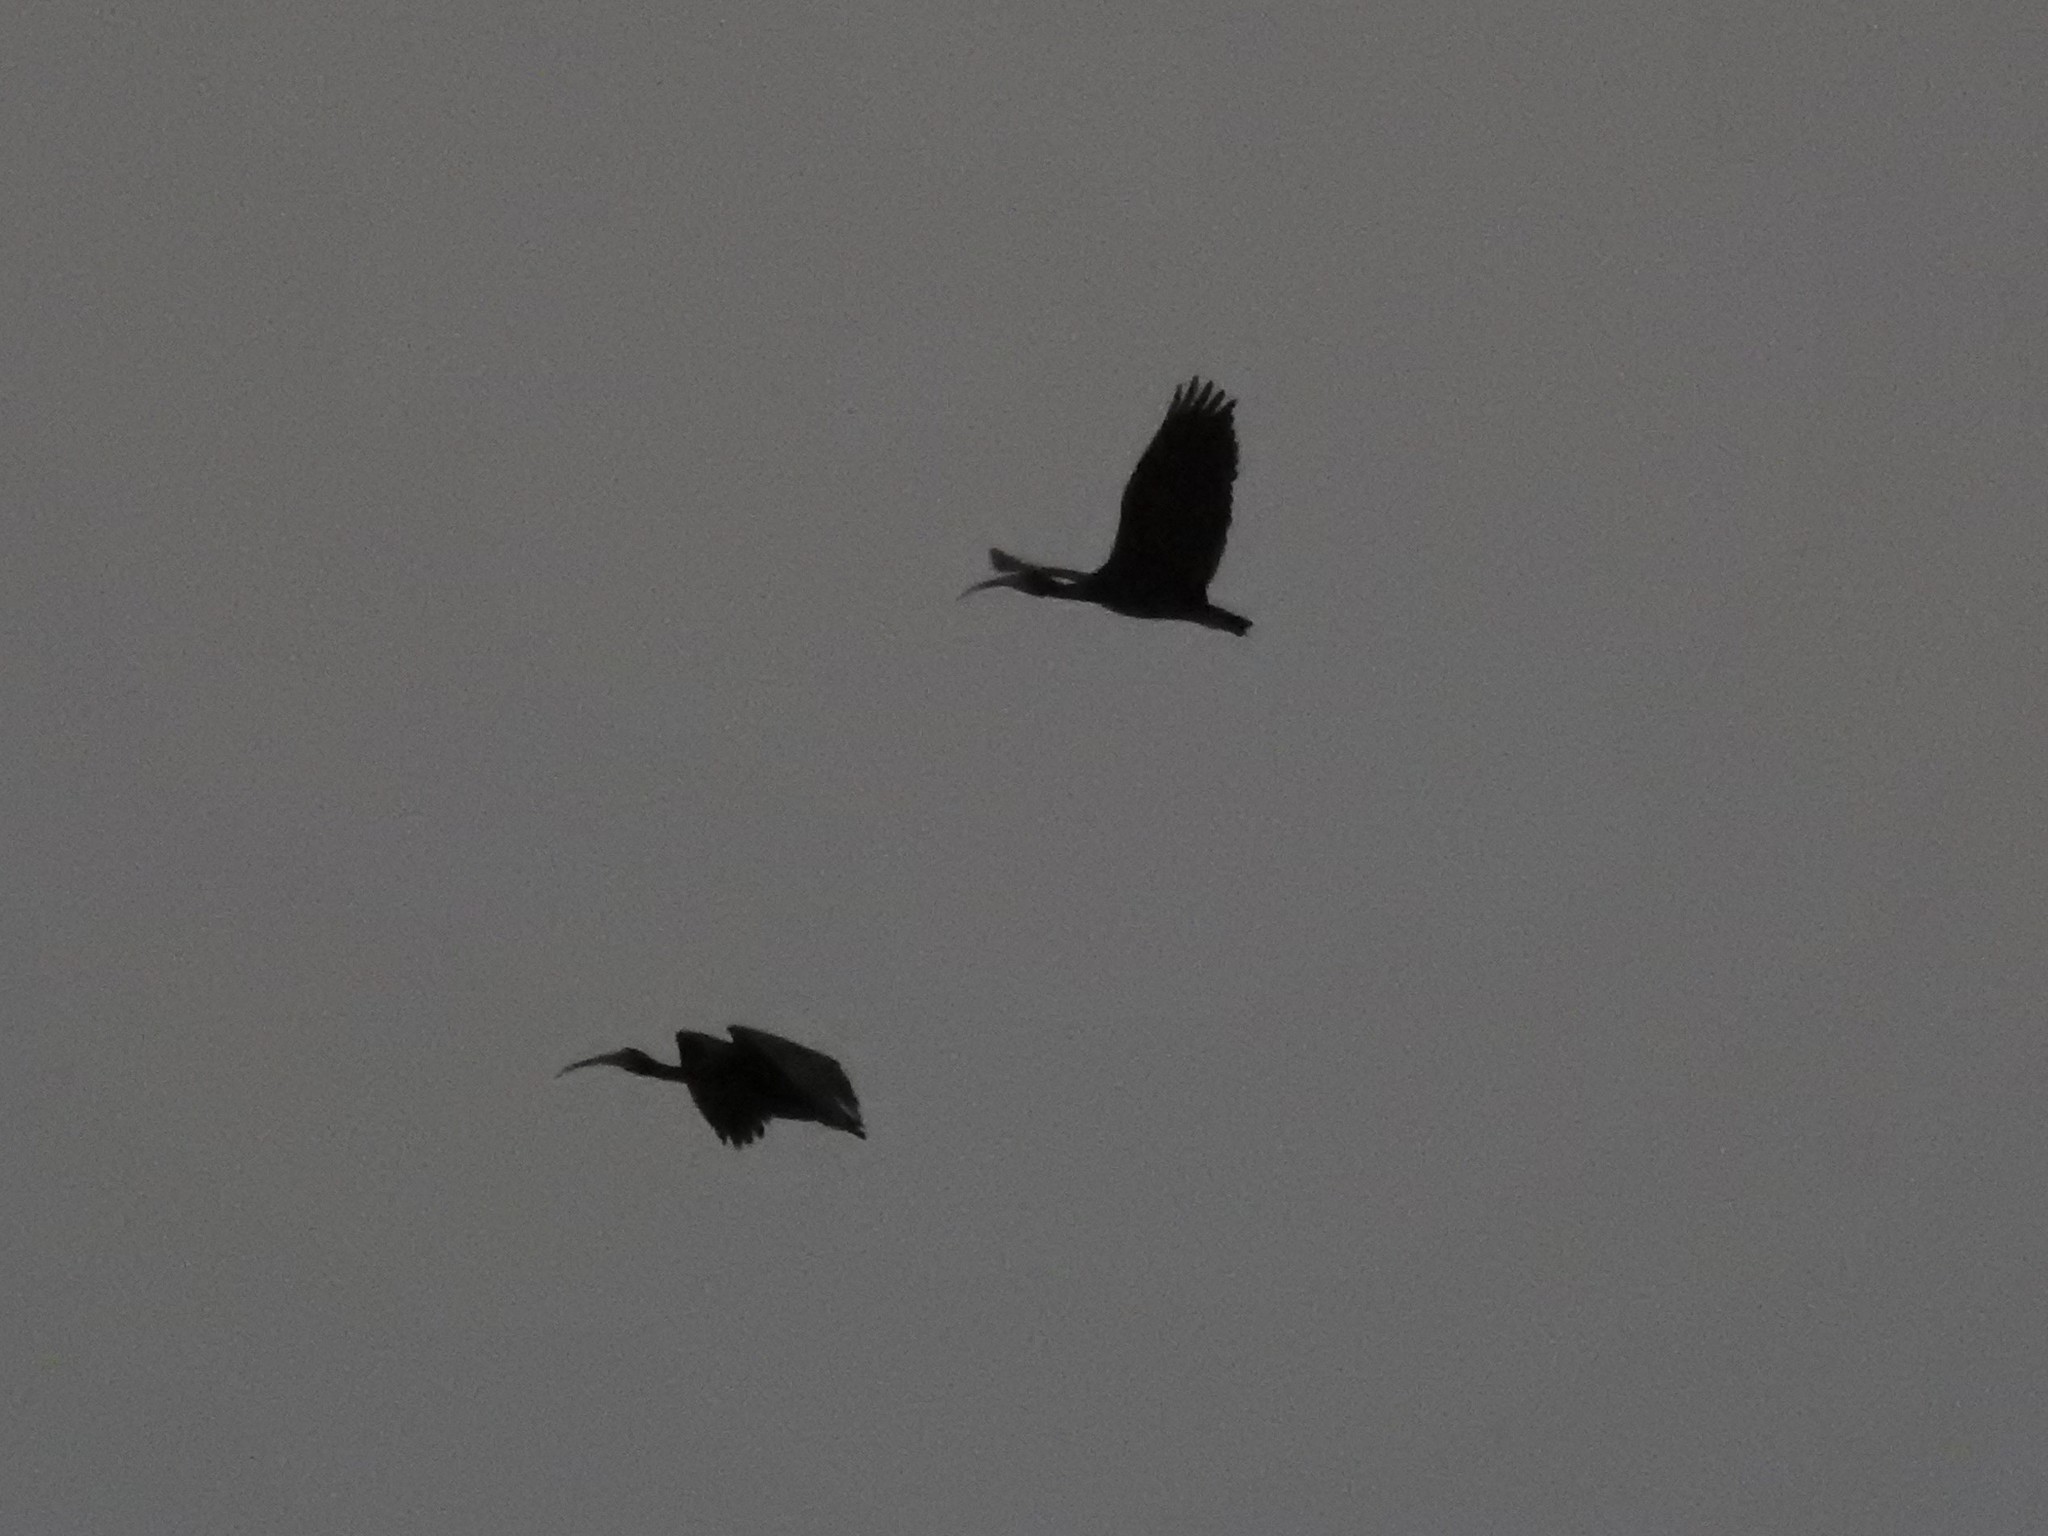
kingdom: Animalia
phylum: Chordata
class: Aves
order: Pelecaniformes
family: Threskiornithidae
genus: Phimosus
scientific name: Phimosus infuscatus
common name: Bare-faced ibis
